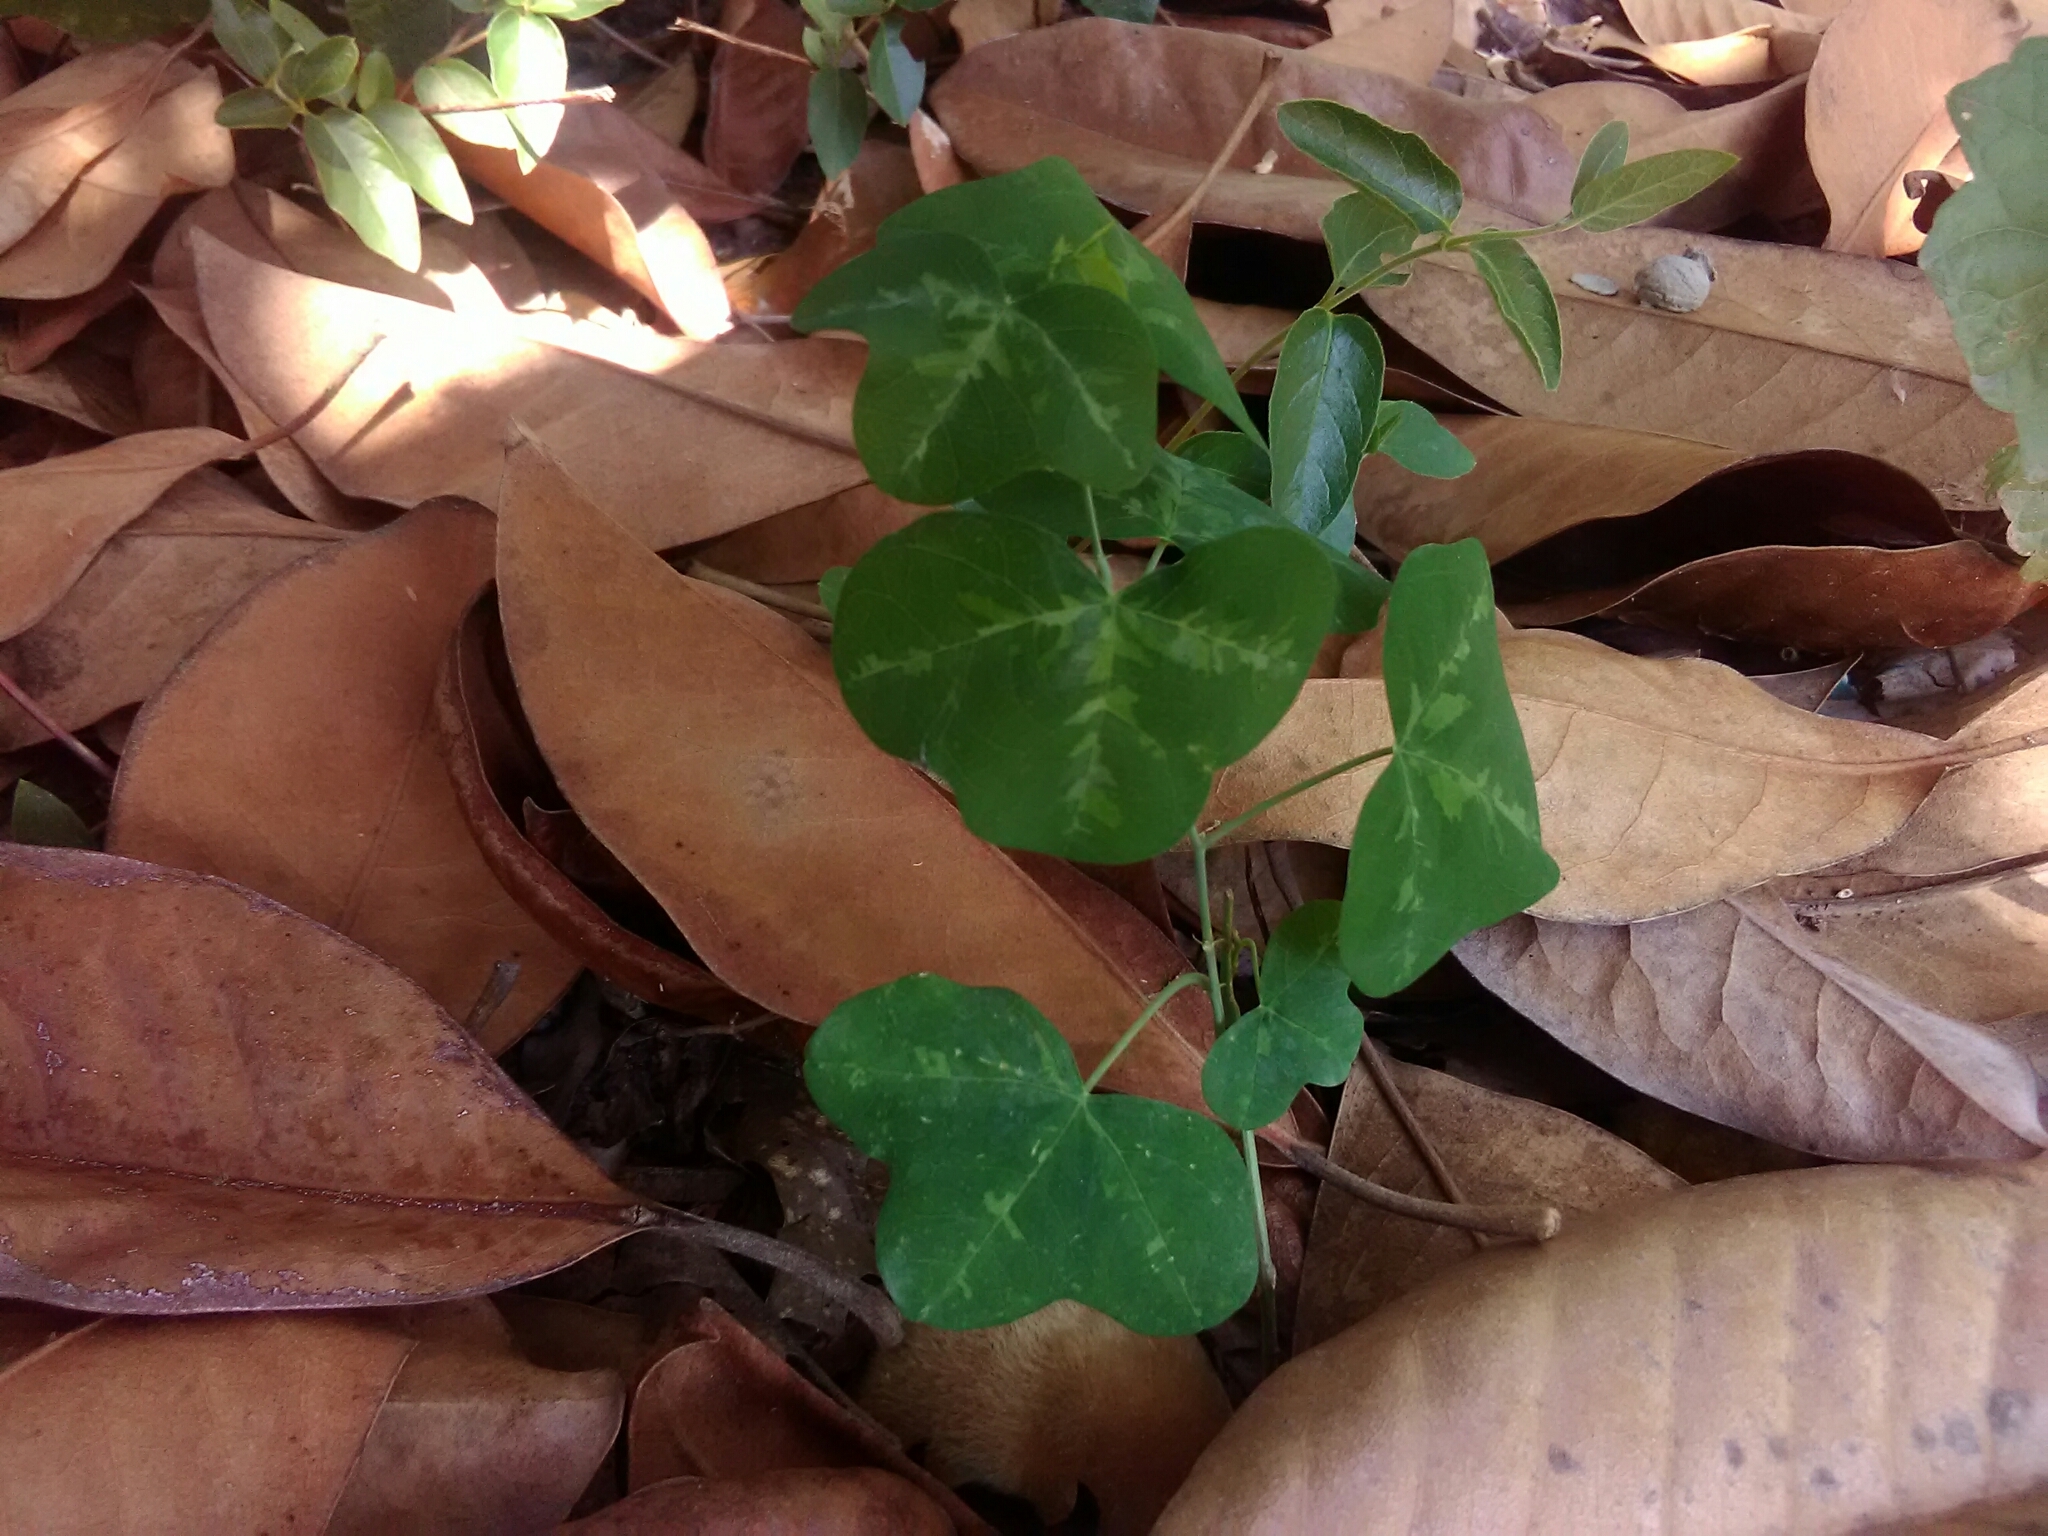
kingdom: Plantae
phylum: Tracheophyta
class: Magnoliopsida
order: Malpighiales
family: Passifloraceae
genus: Passiflora
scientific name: Passiflora lutea
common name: Yellow passionflower
